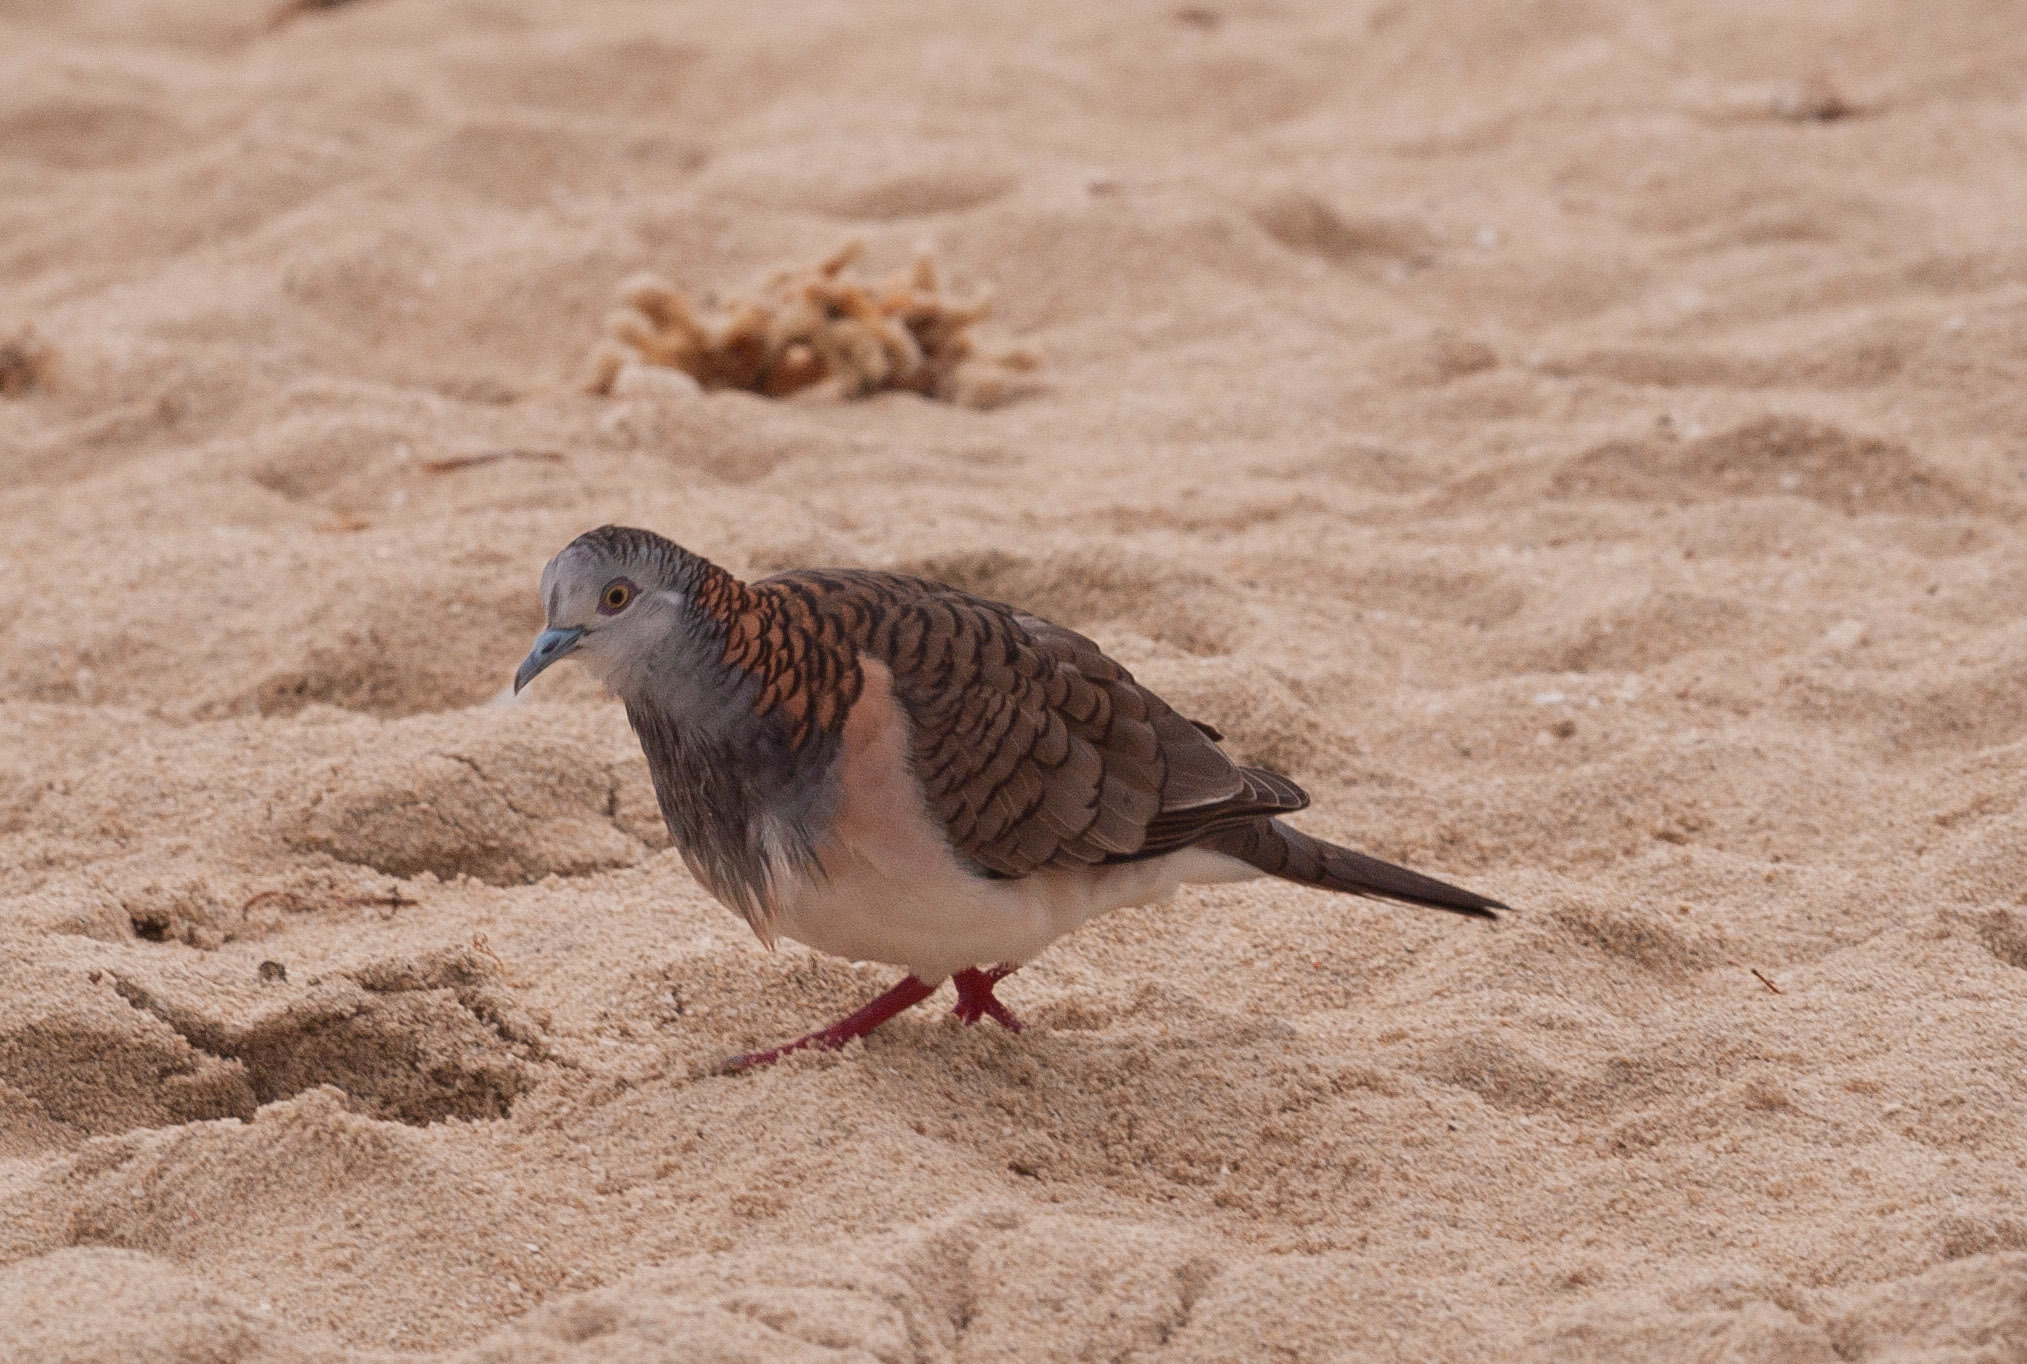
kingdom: Animalia
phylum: Chordata
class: Aves
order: Columbiformes
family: Columbidae
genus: Geopelia
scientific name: Geopelia humeralis
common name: Bar-shouldered dove
